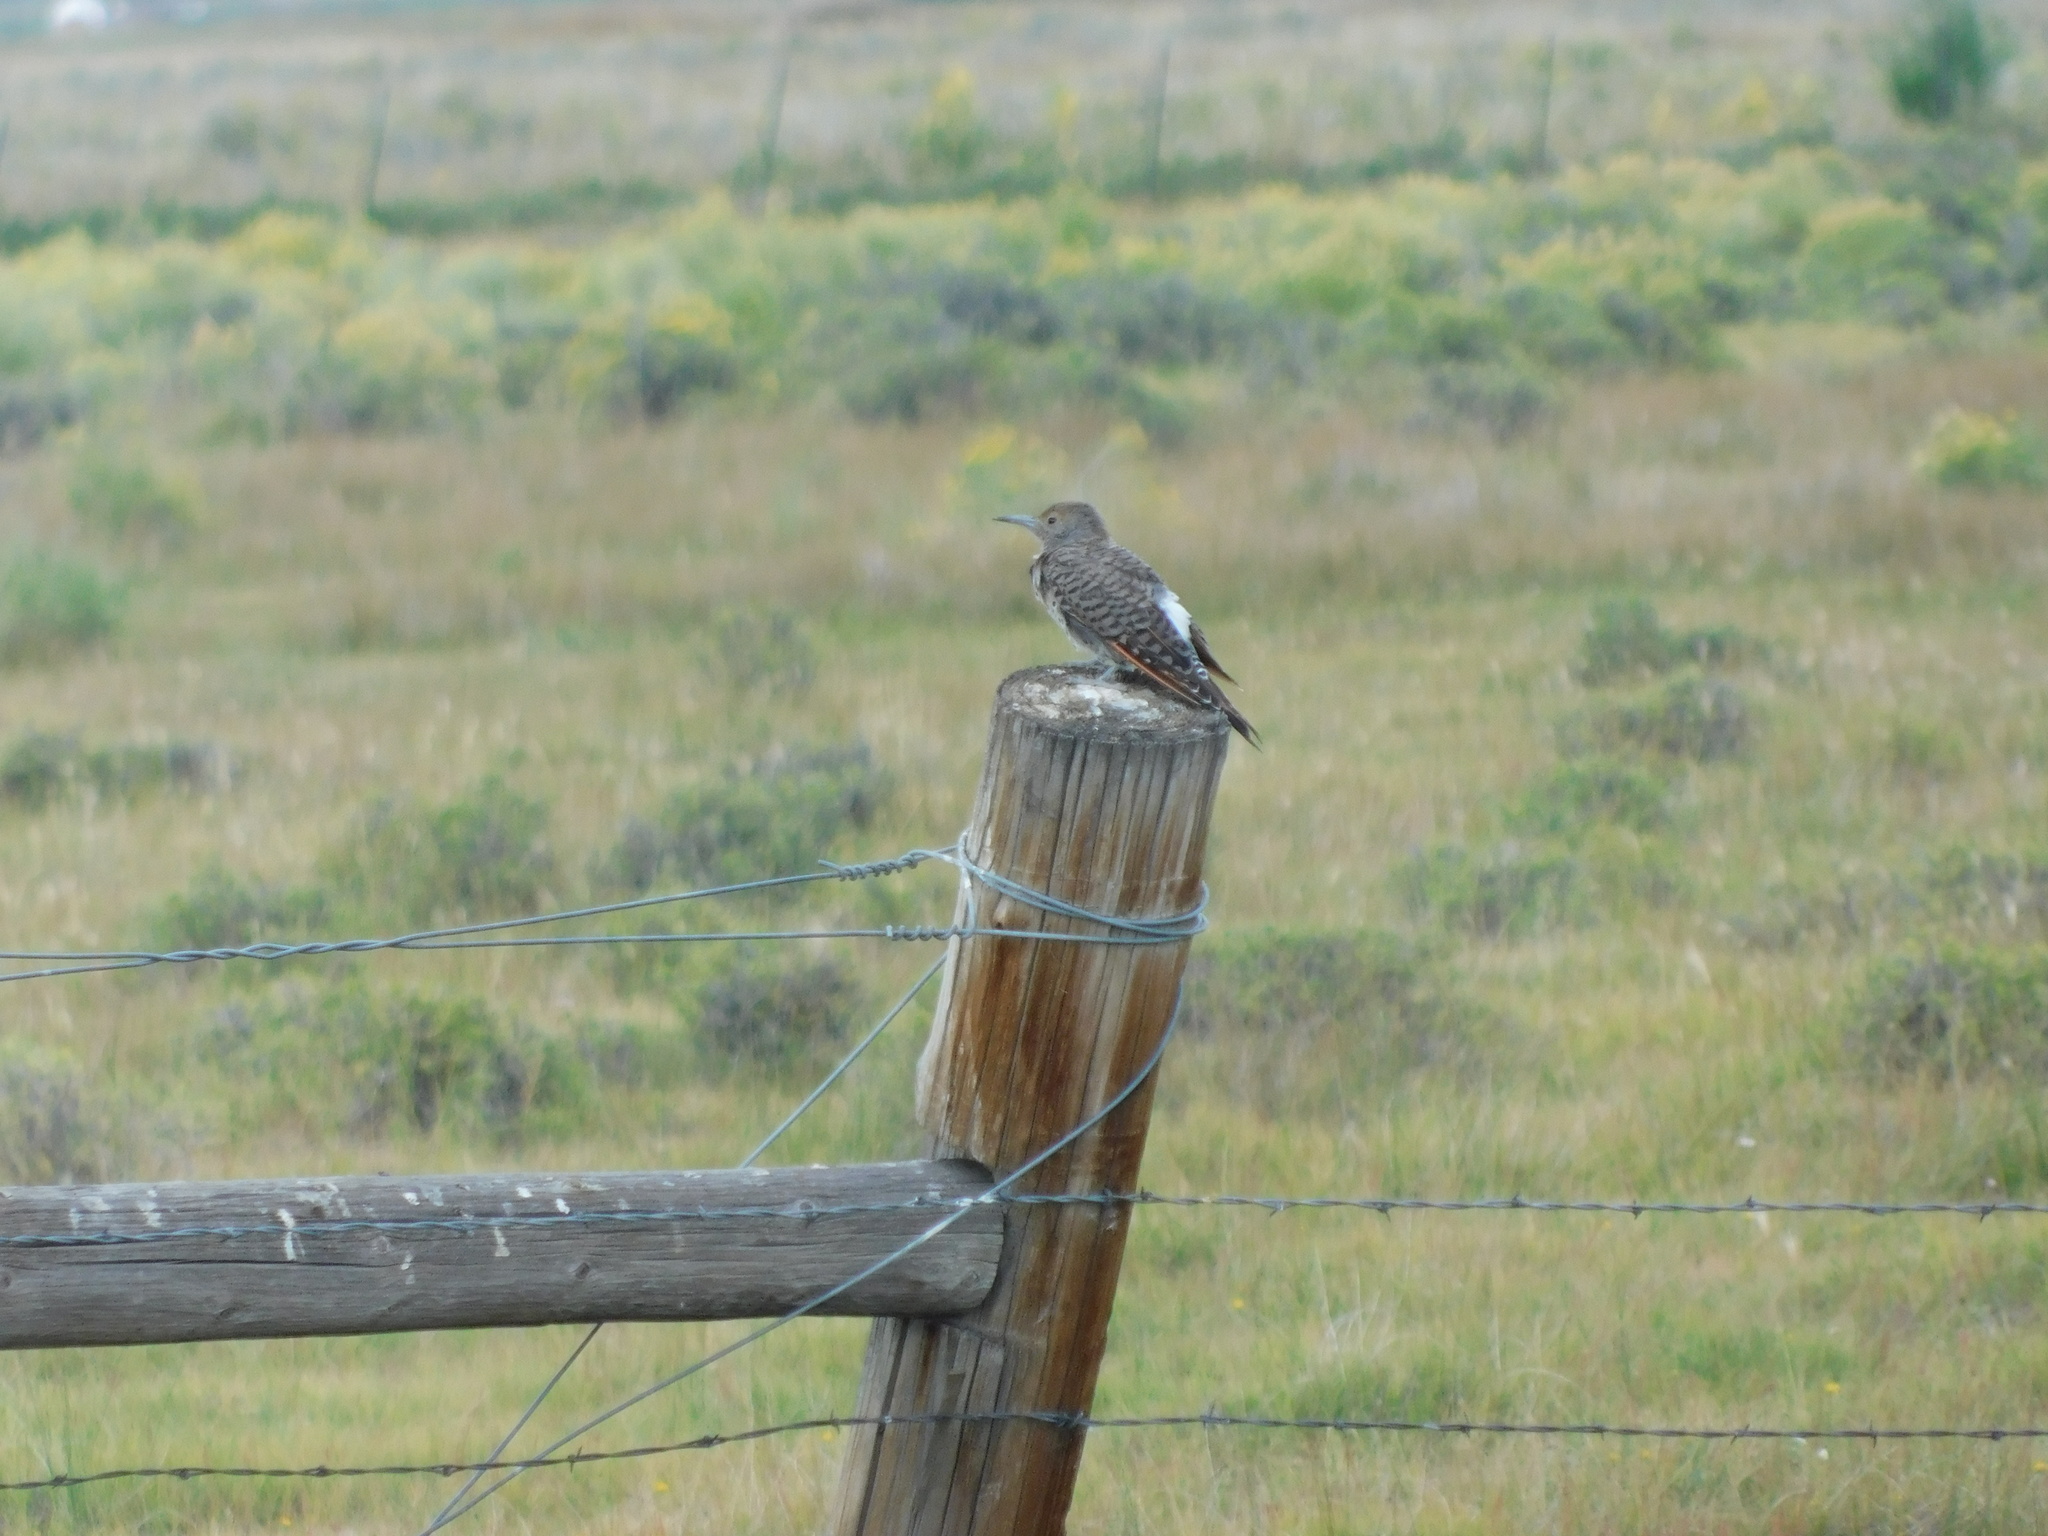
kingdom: Animalia
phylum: Chordata
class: Aves
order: Piciformes
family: Picidae
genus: Colaptes
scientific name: Colaptes auratus
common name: Northern flicker
